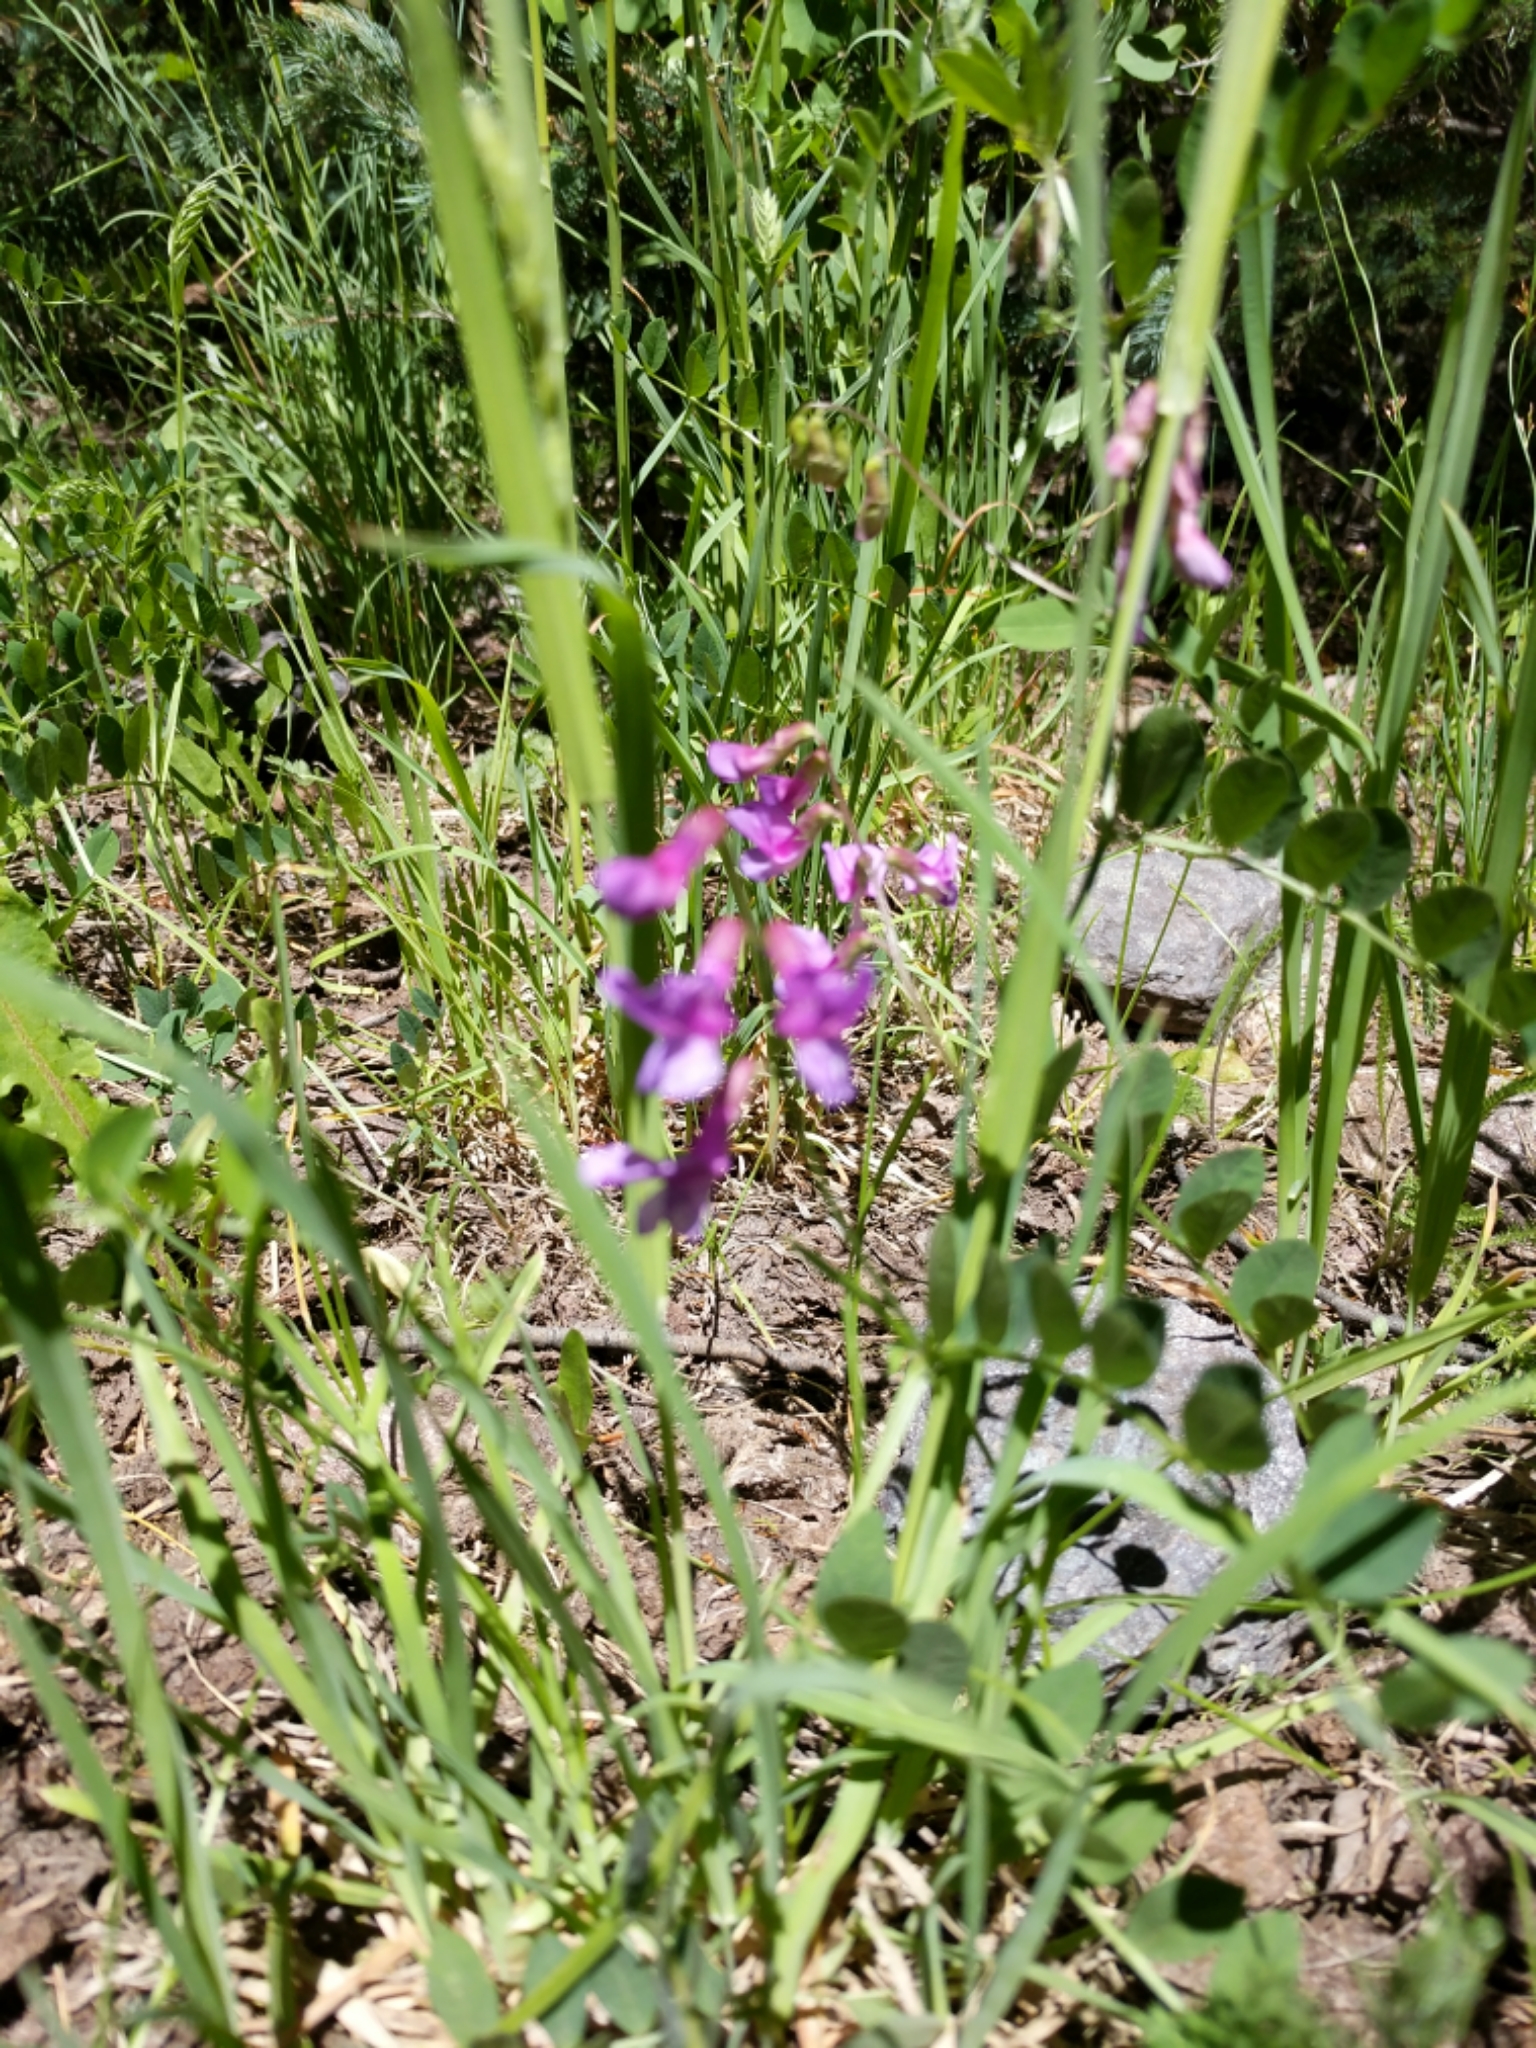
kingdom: Plantae
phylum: Tracheophyta
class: Magnoliopsida
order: Fabales
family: Fabaceae
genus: Vicia
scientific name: Vicia americana
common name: American vetch
